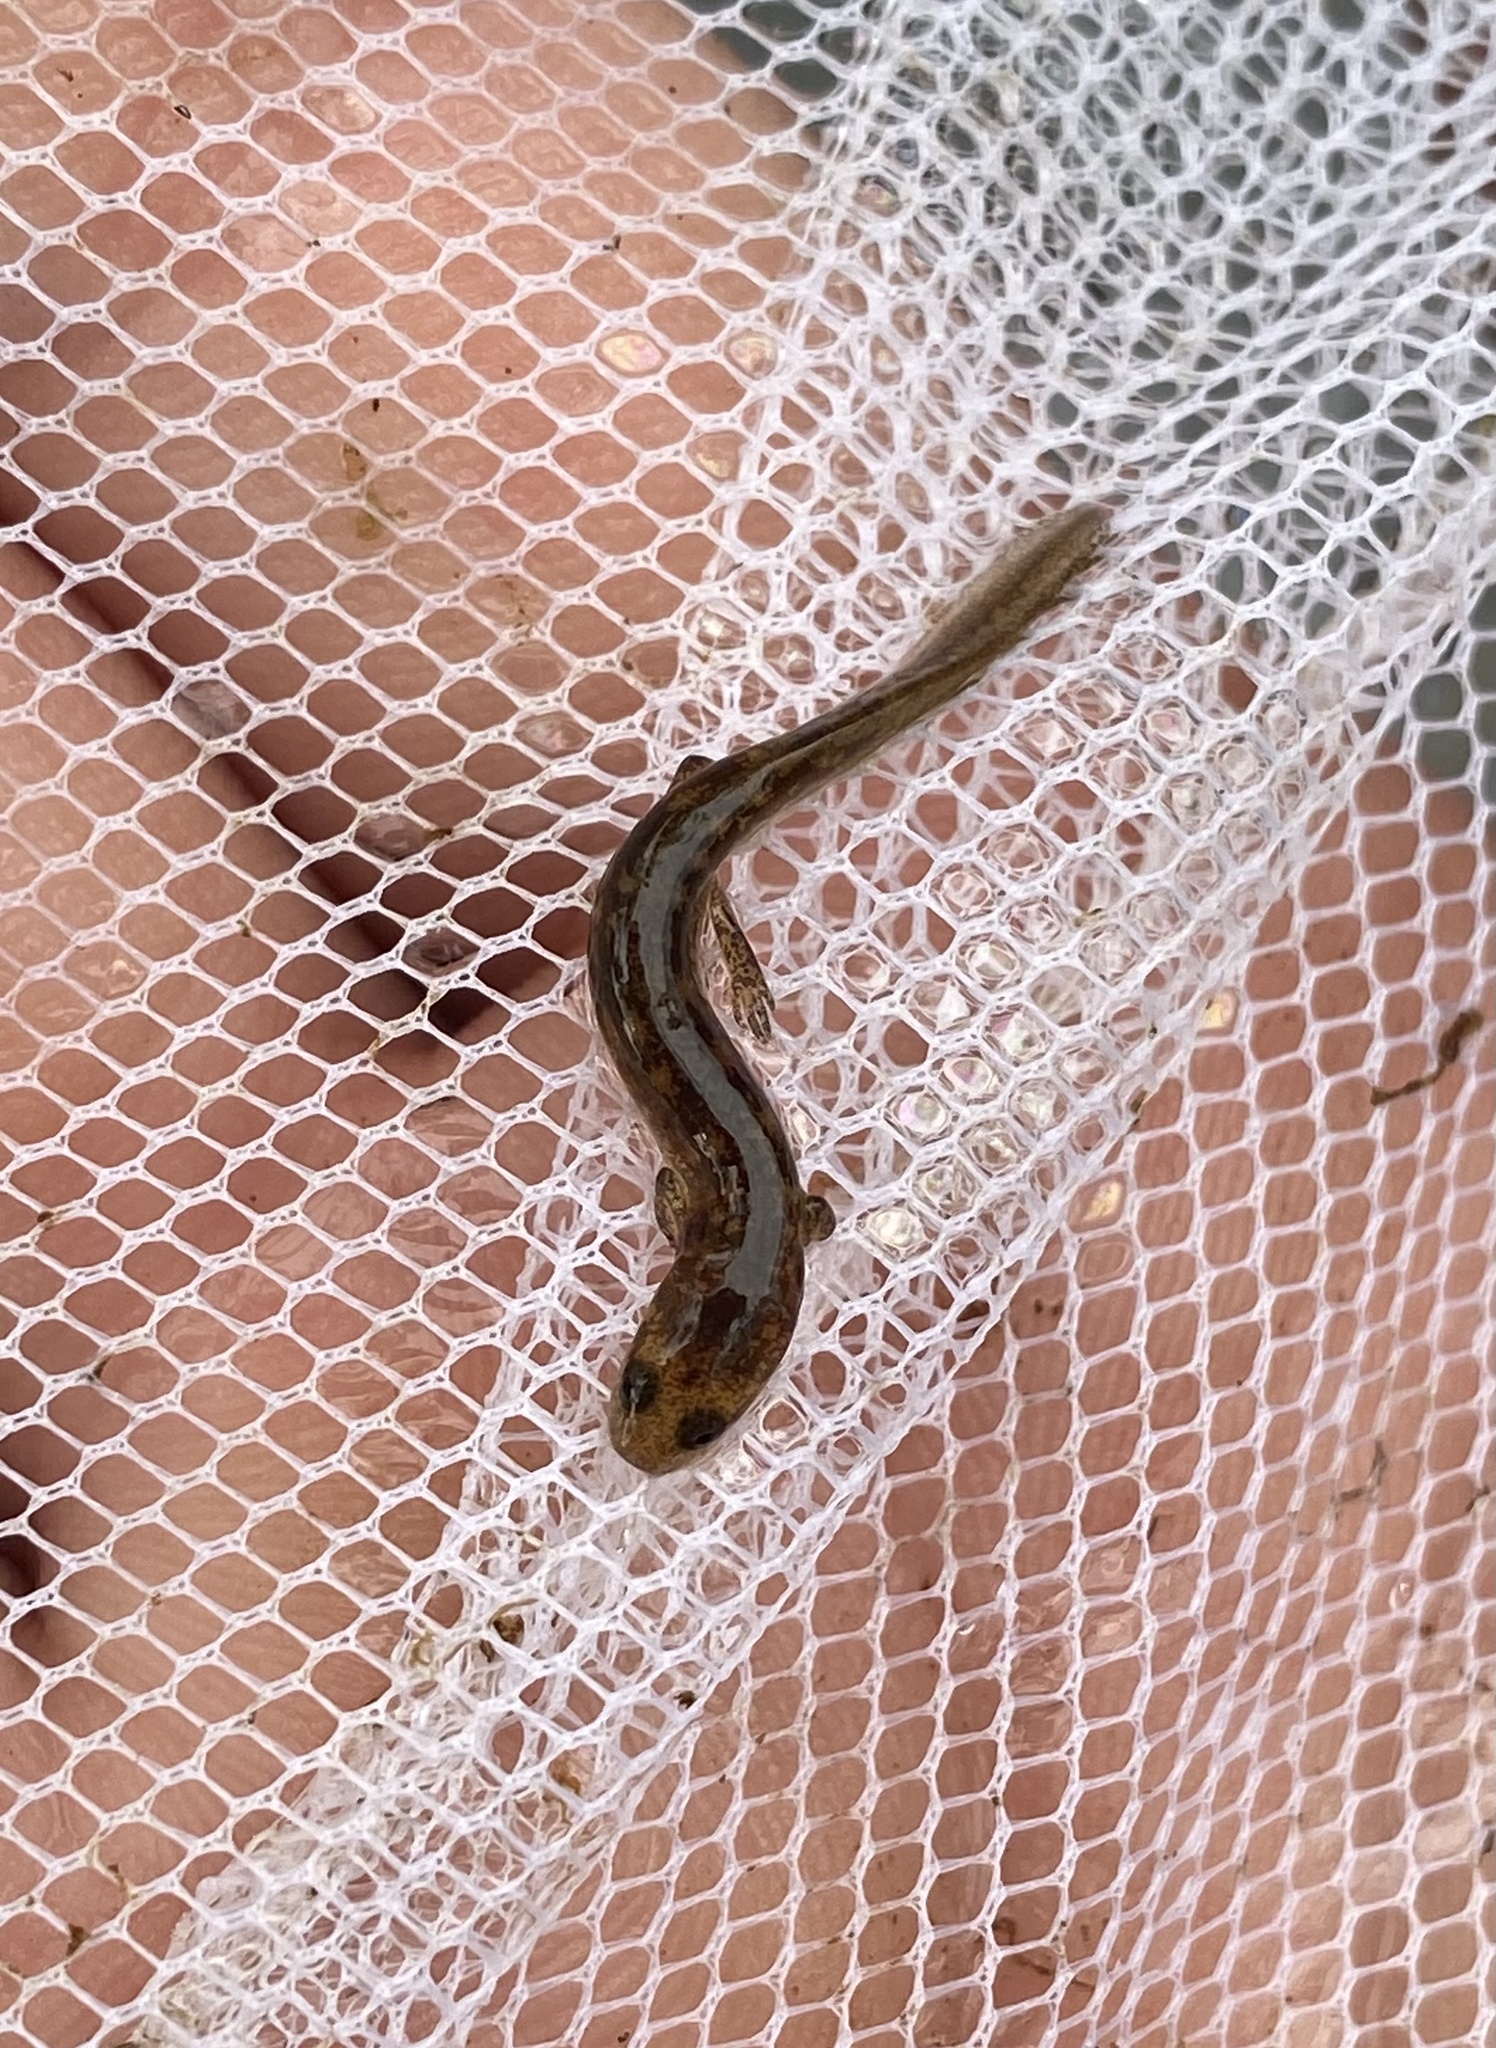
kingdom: Animalia
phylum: Chordata
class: Amphibia
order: Caudata
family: Plethodontidae
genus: Eurycea
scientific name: Eurycea bislineata
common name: Northern two-lined salamander
